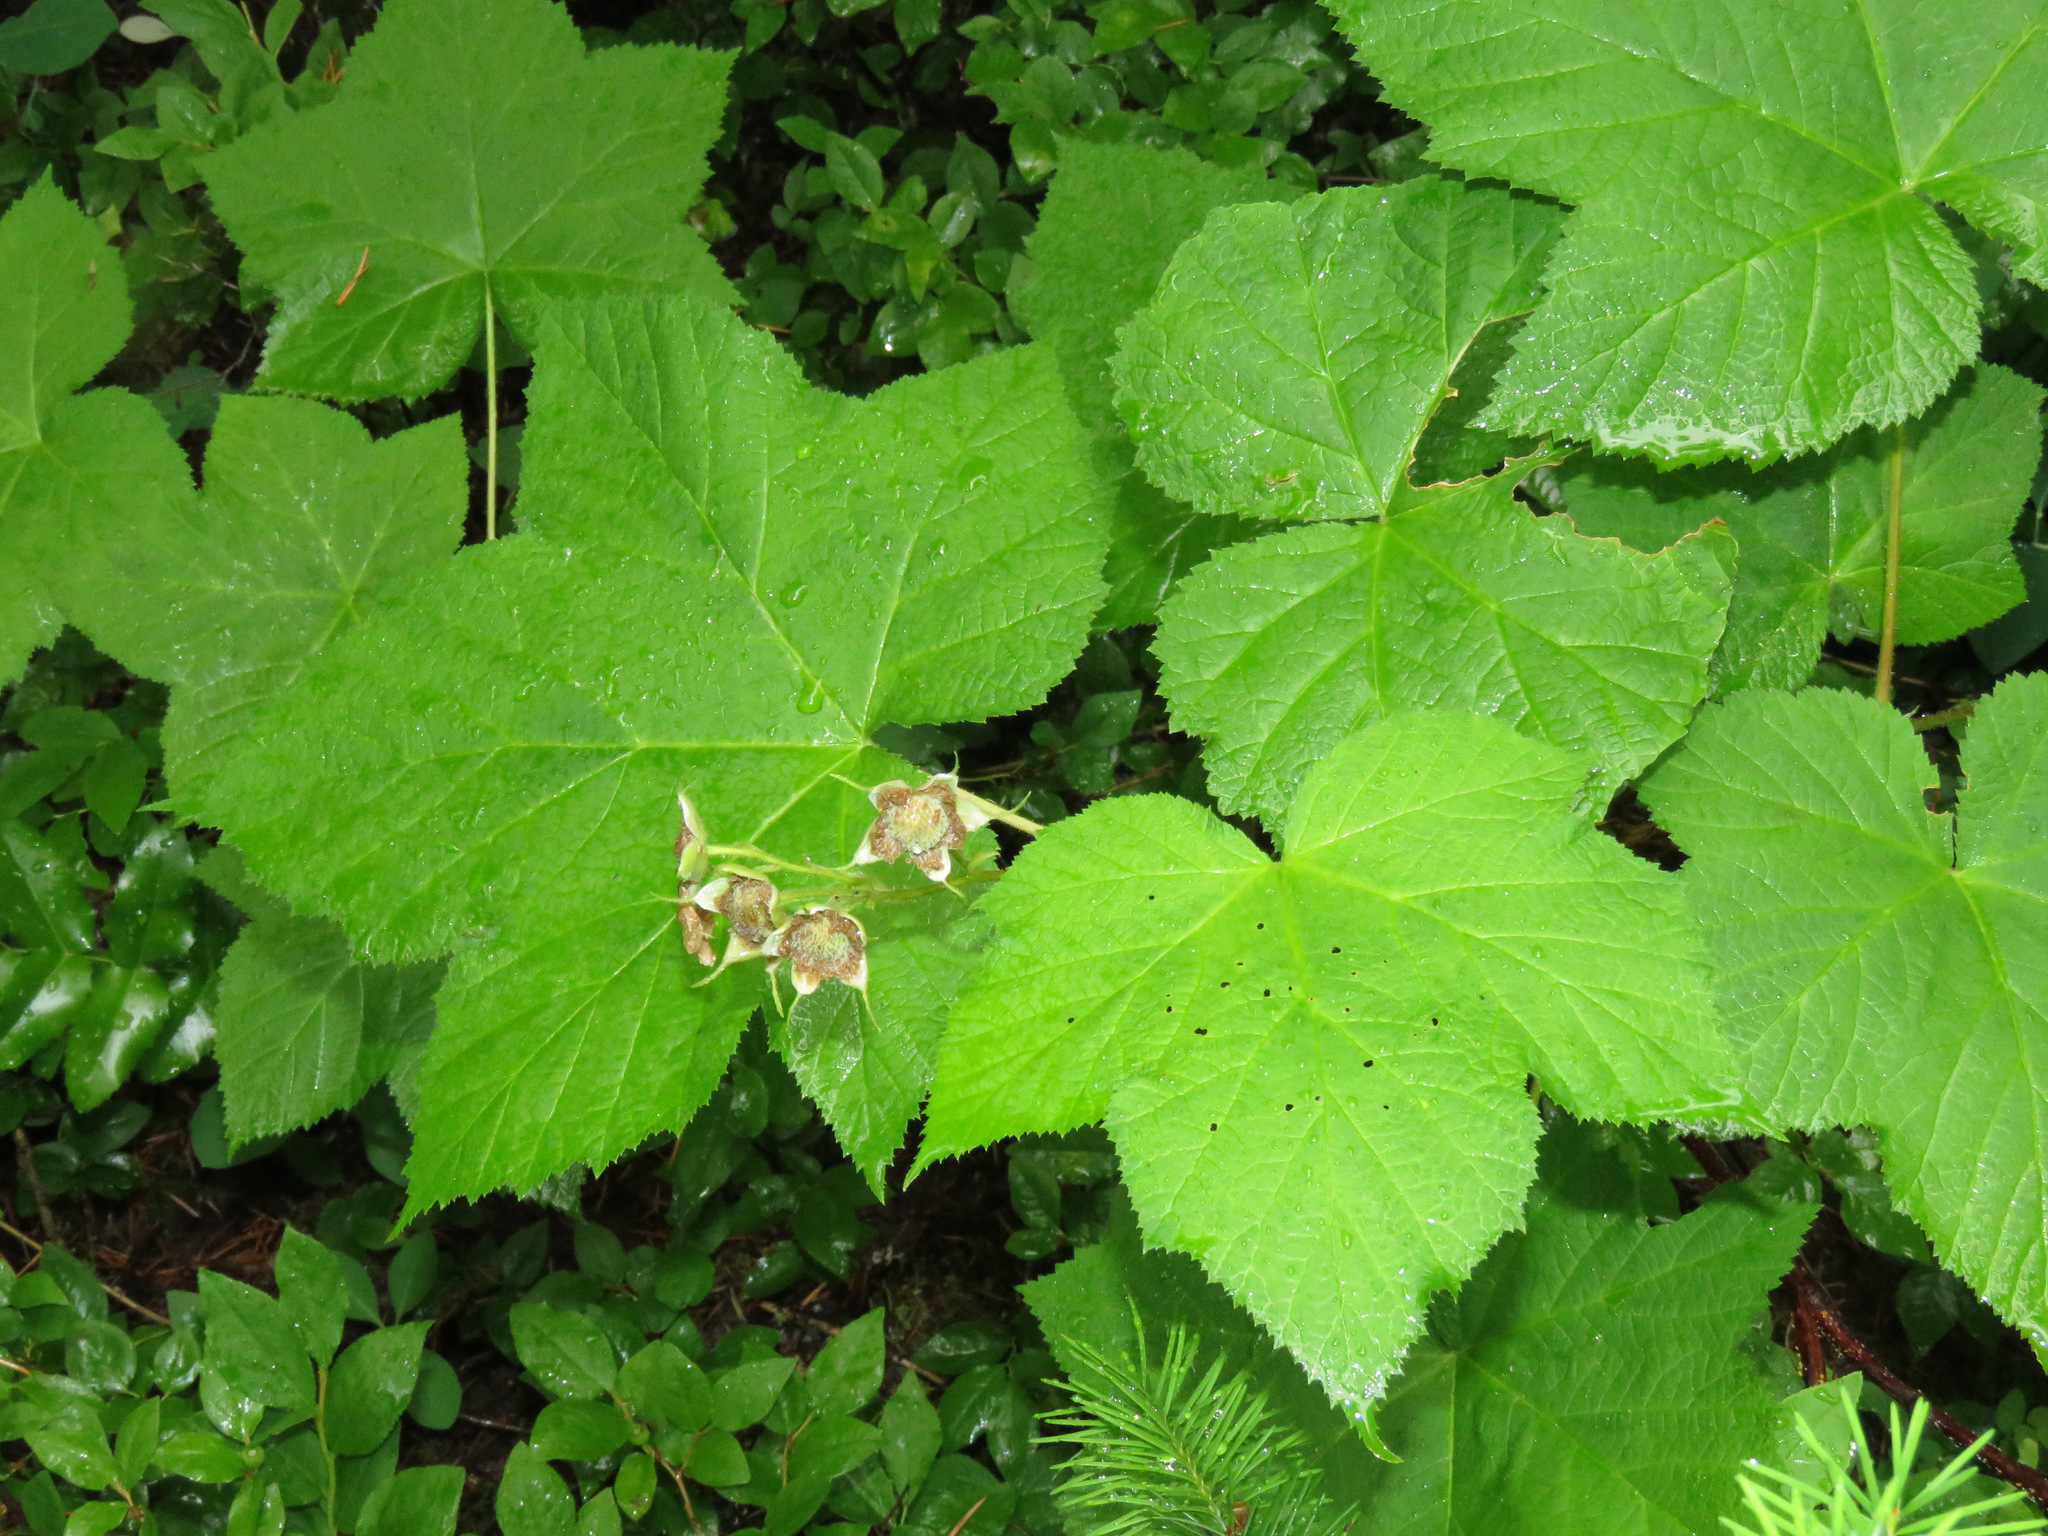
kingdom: Plantae
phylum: Tracheophyta
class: Magnoliopsida
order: Rosales
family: Rosaceae
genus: Rubus
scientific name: Rubus parviflorus
